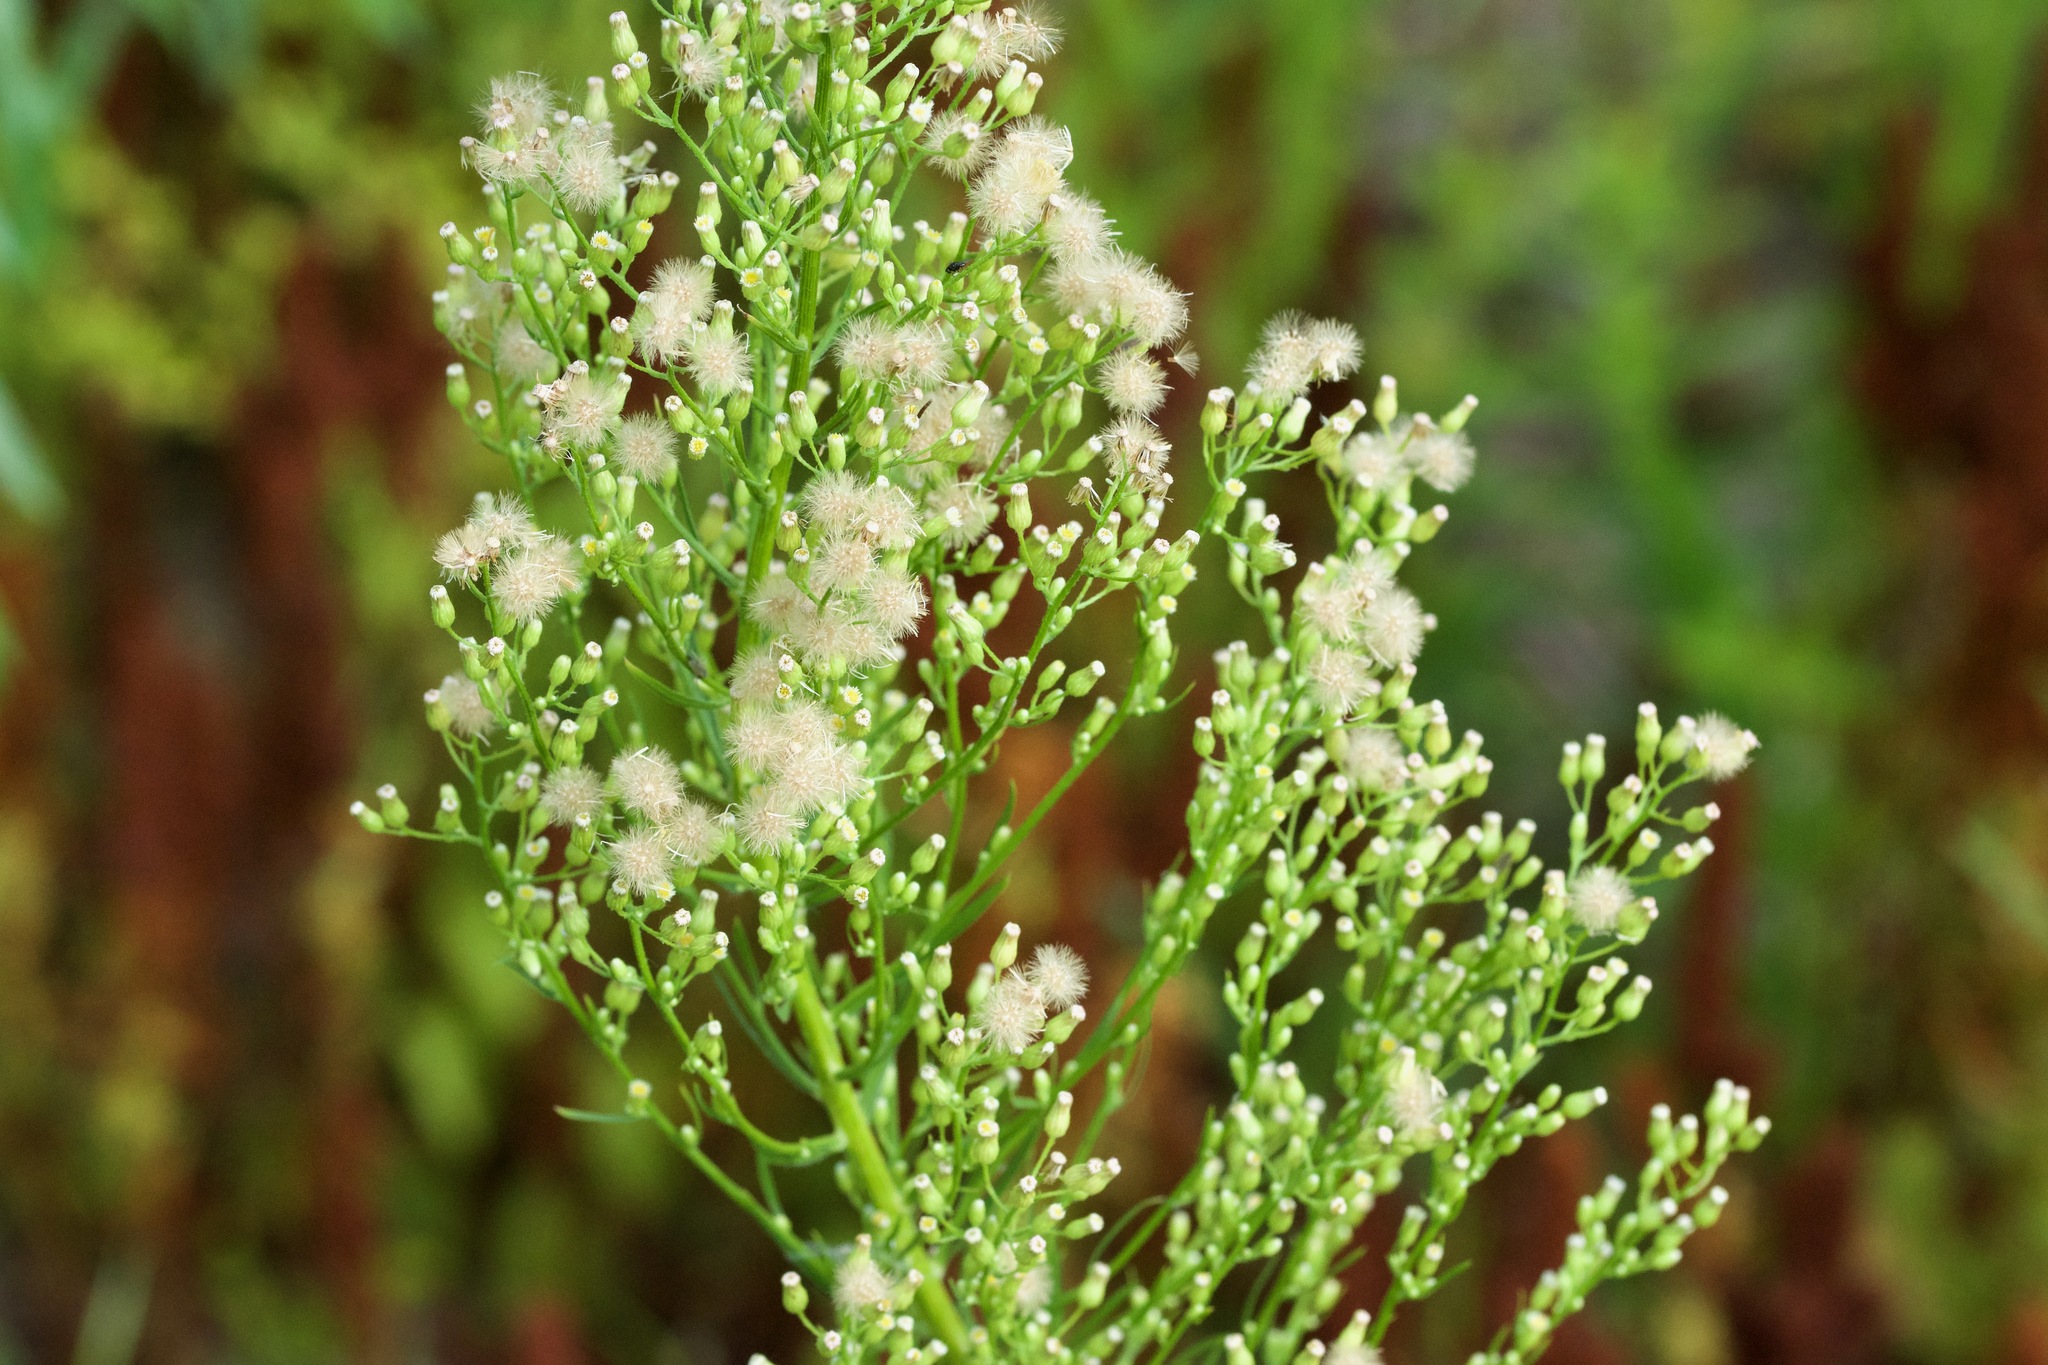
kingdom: Plantae
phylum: Tracheophyta
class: Magnoliopsida
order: Asterales
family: Asteraceae
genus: Erigeron
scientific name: Erigeron canadensis
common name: Canadian fleabane
